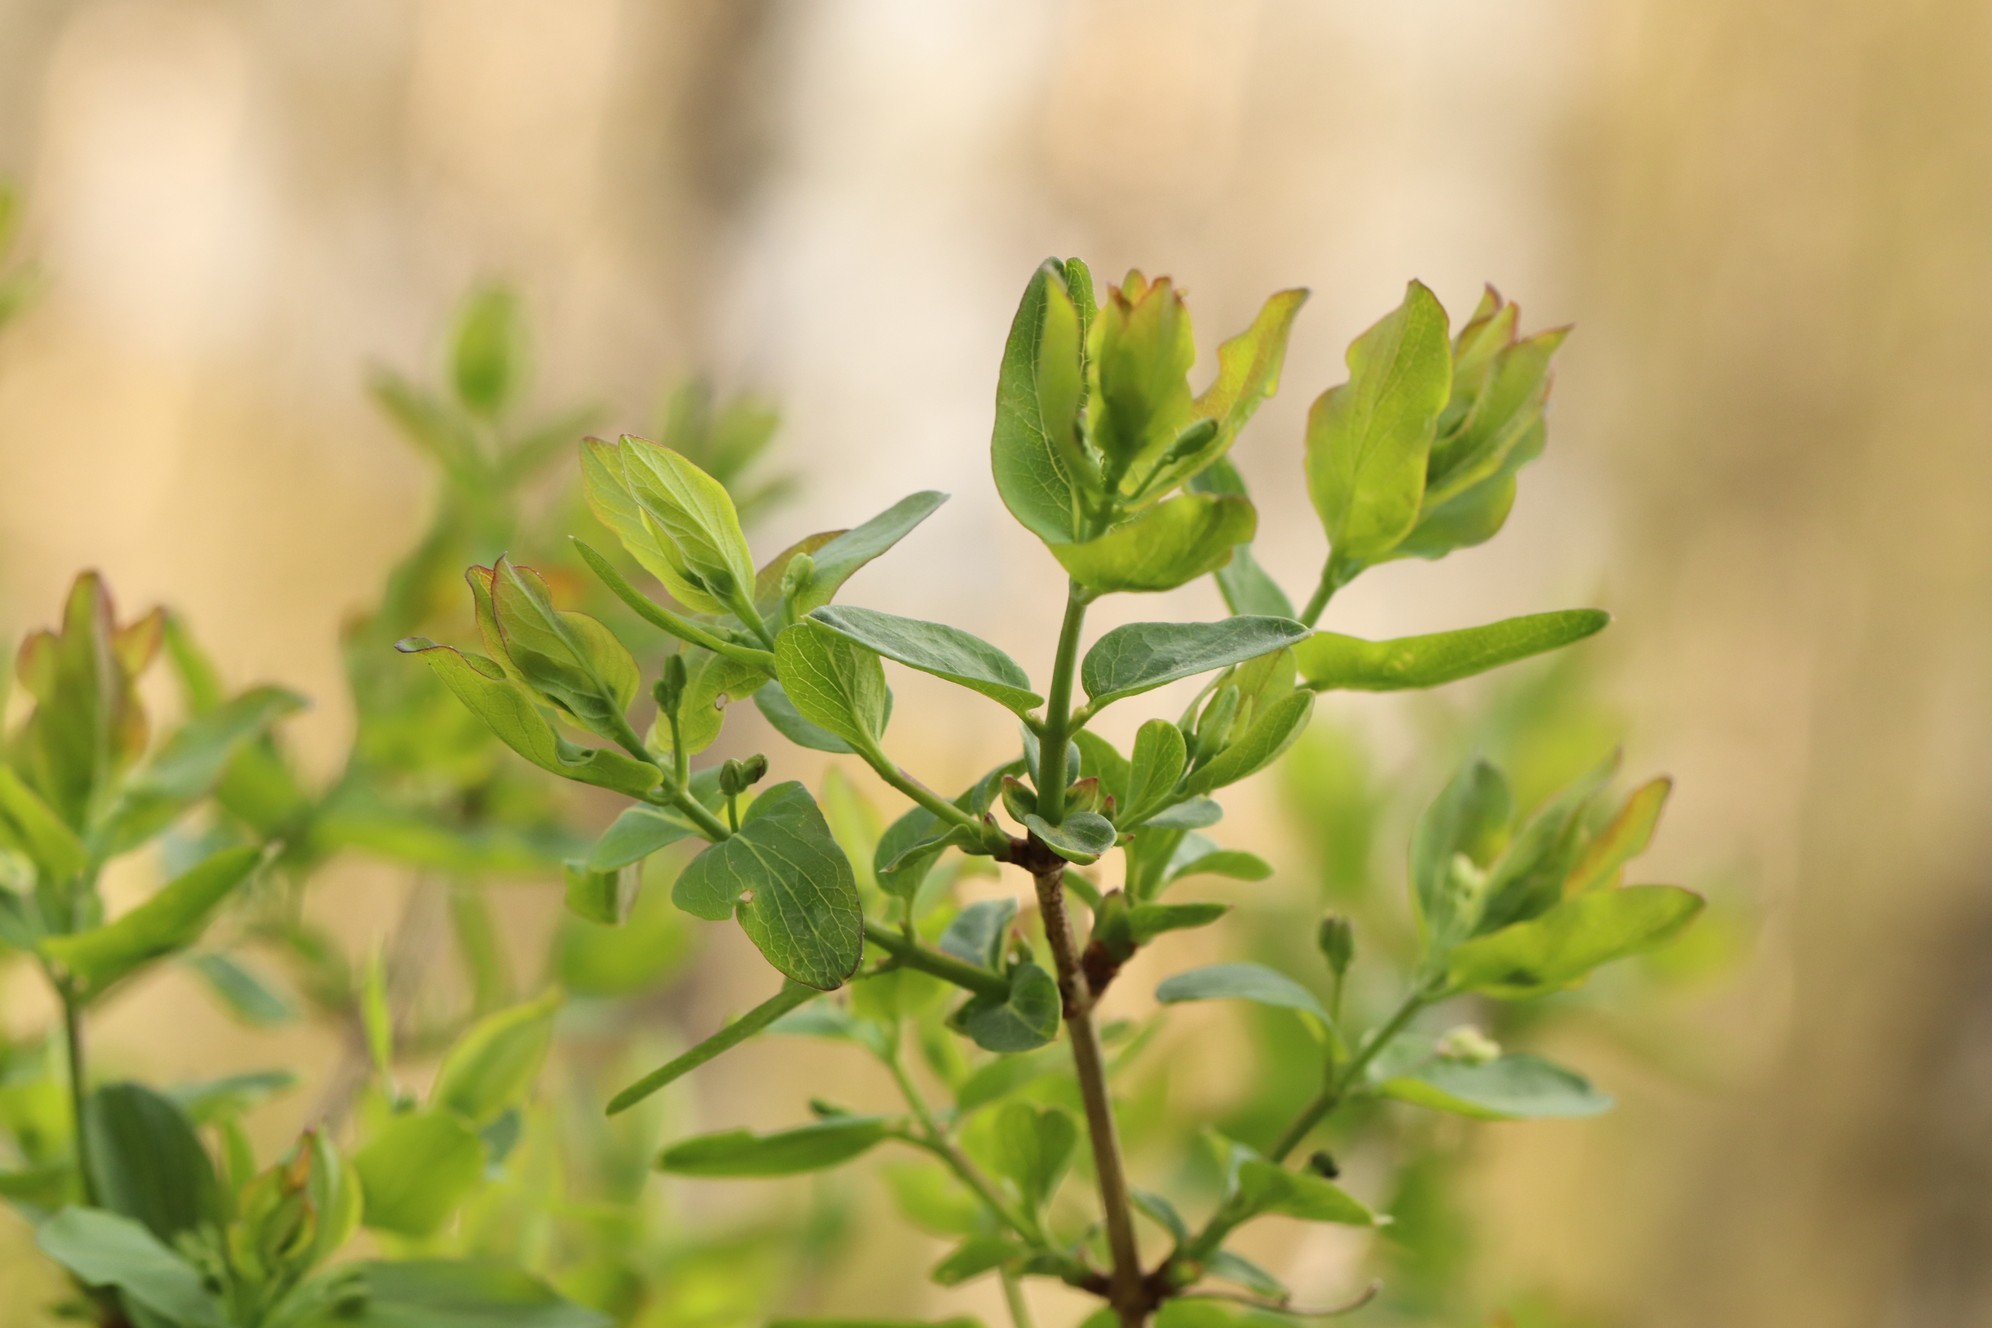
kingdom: Plantae
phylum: Tracheophyta
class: Magnoliopsida
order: Dipsacales
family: Caprifoliaceae
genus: Lonicera
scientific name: Lonicera tatarica
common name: Tatarian honeysuckle
